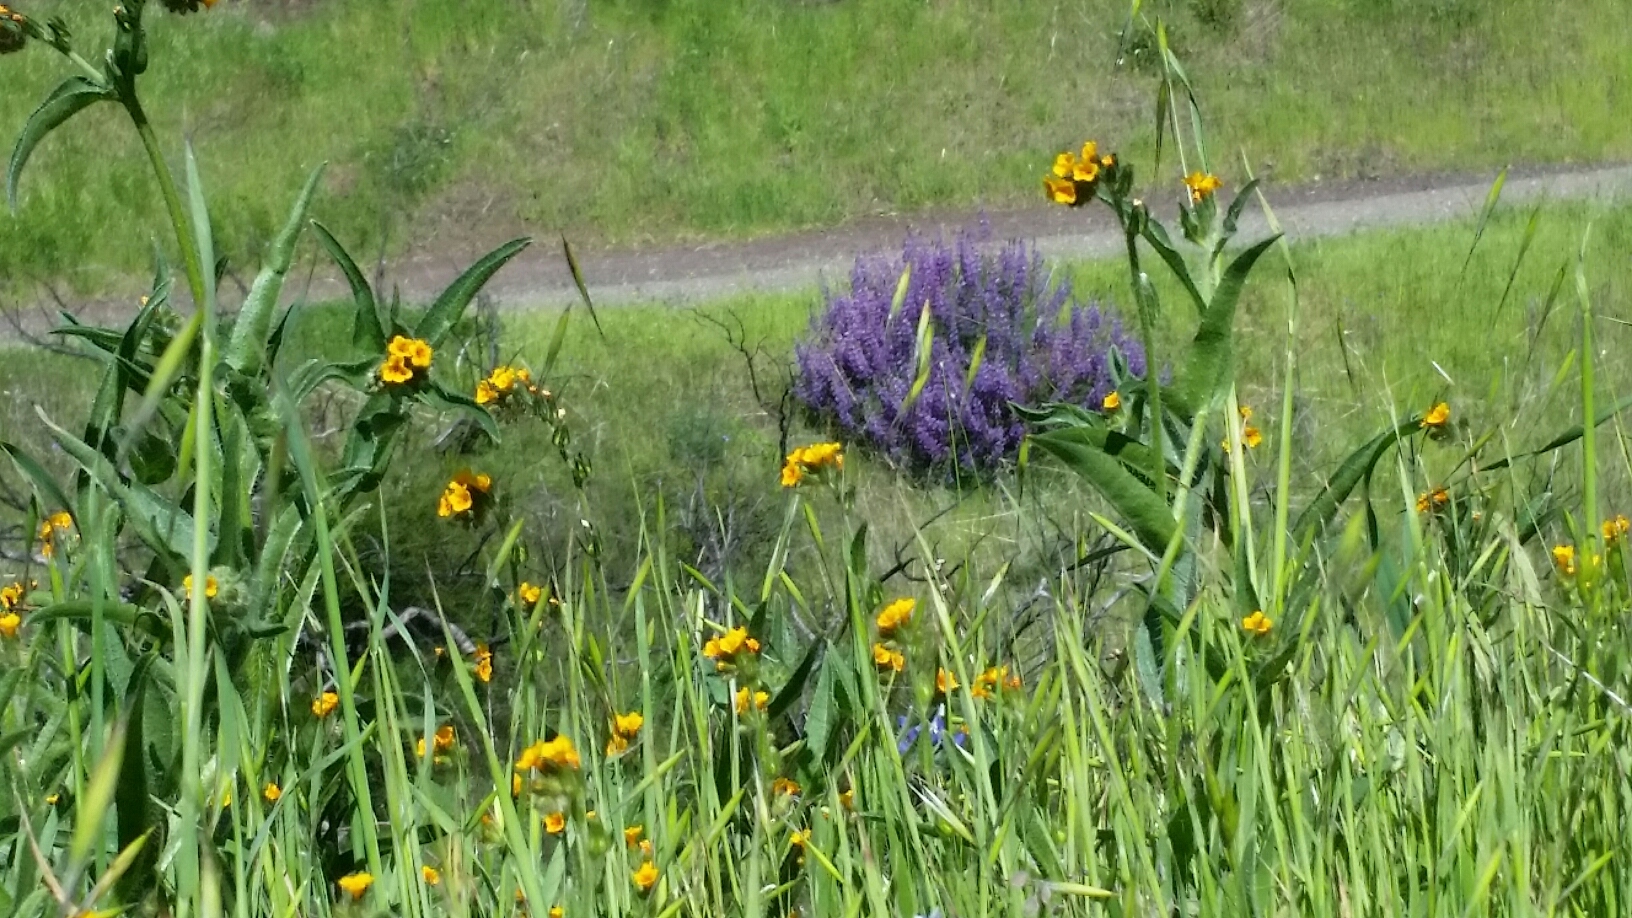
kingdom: Plantae
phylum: Tracheophyta
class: Magnoliopsida
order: Boraginales
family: Boraginaceae
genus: Amsinckia
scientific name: Amsinckia menziesii
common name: Menzies' fiddleneck
